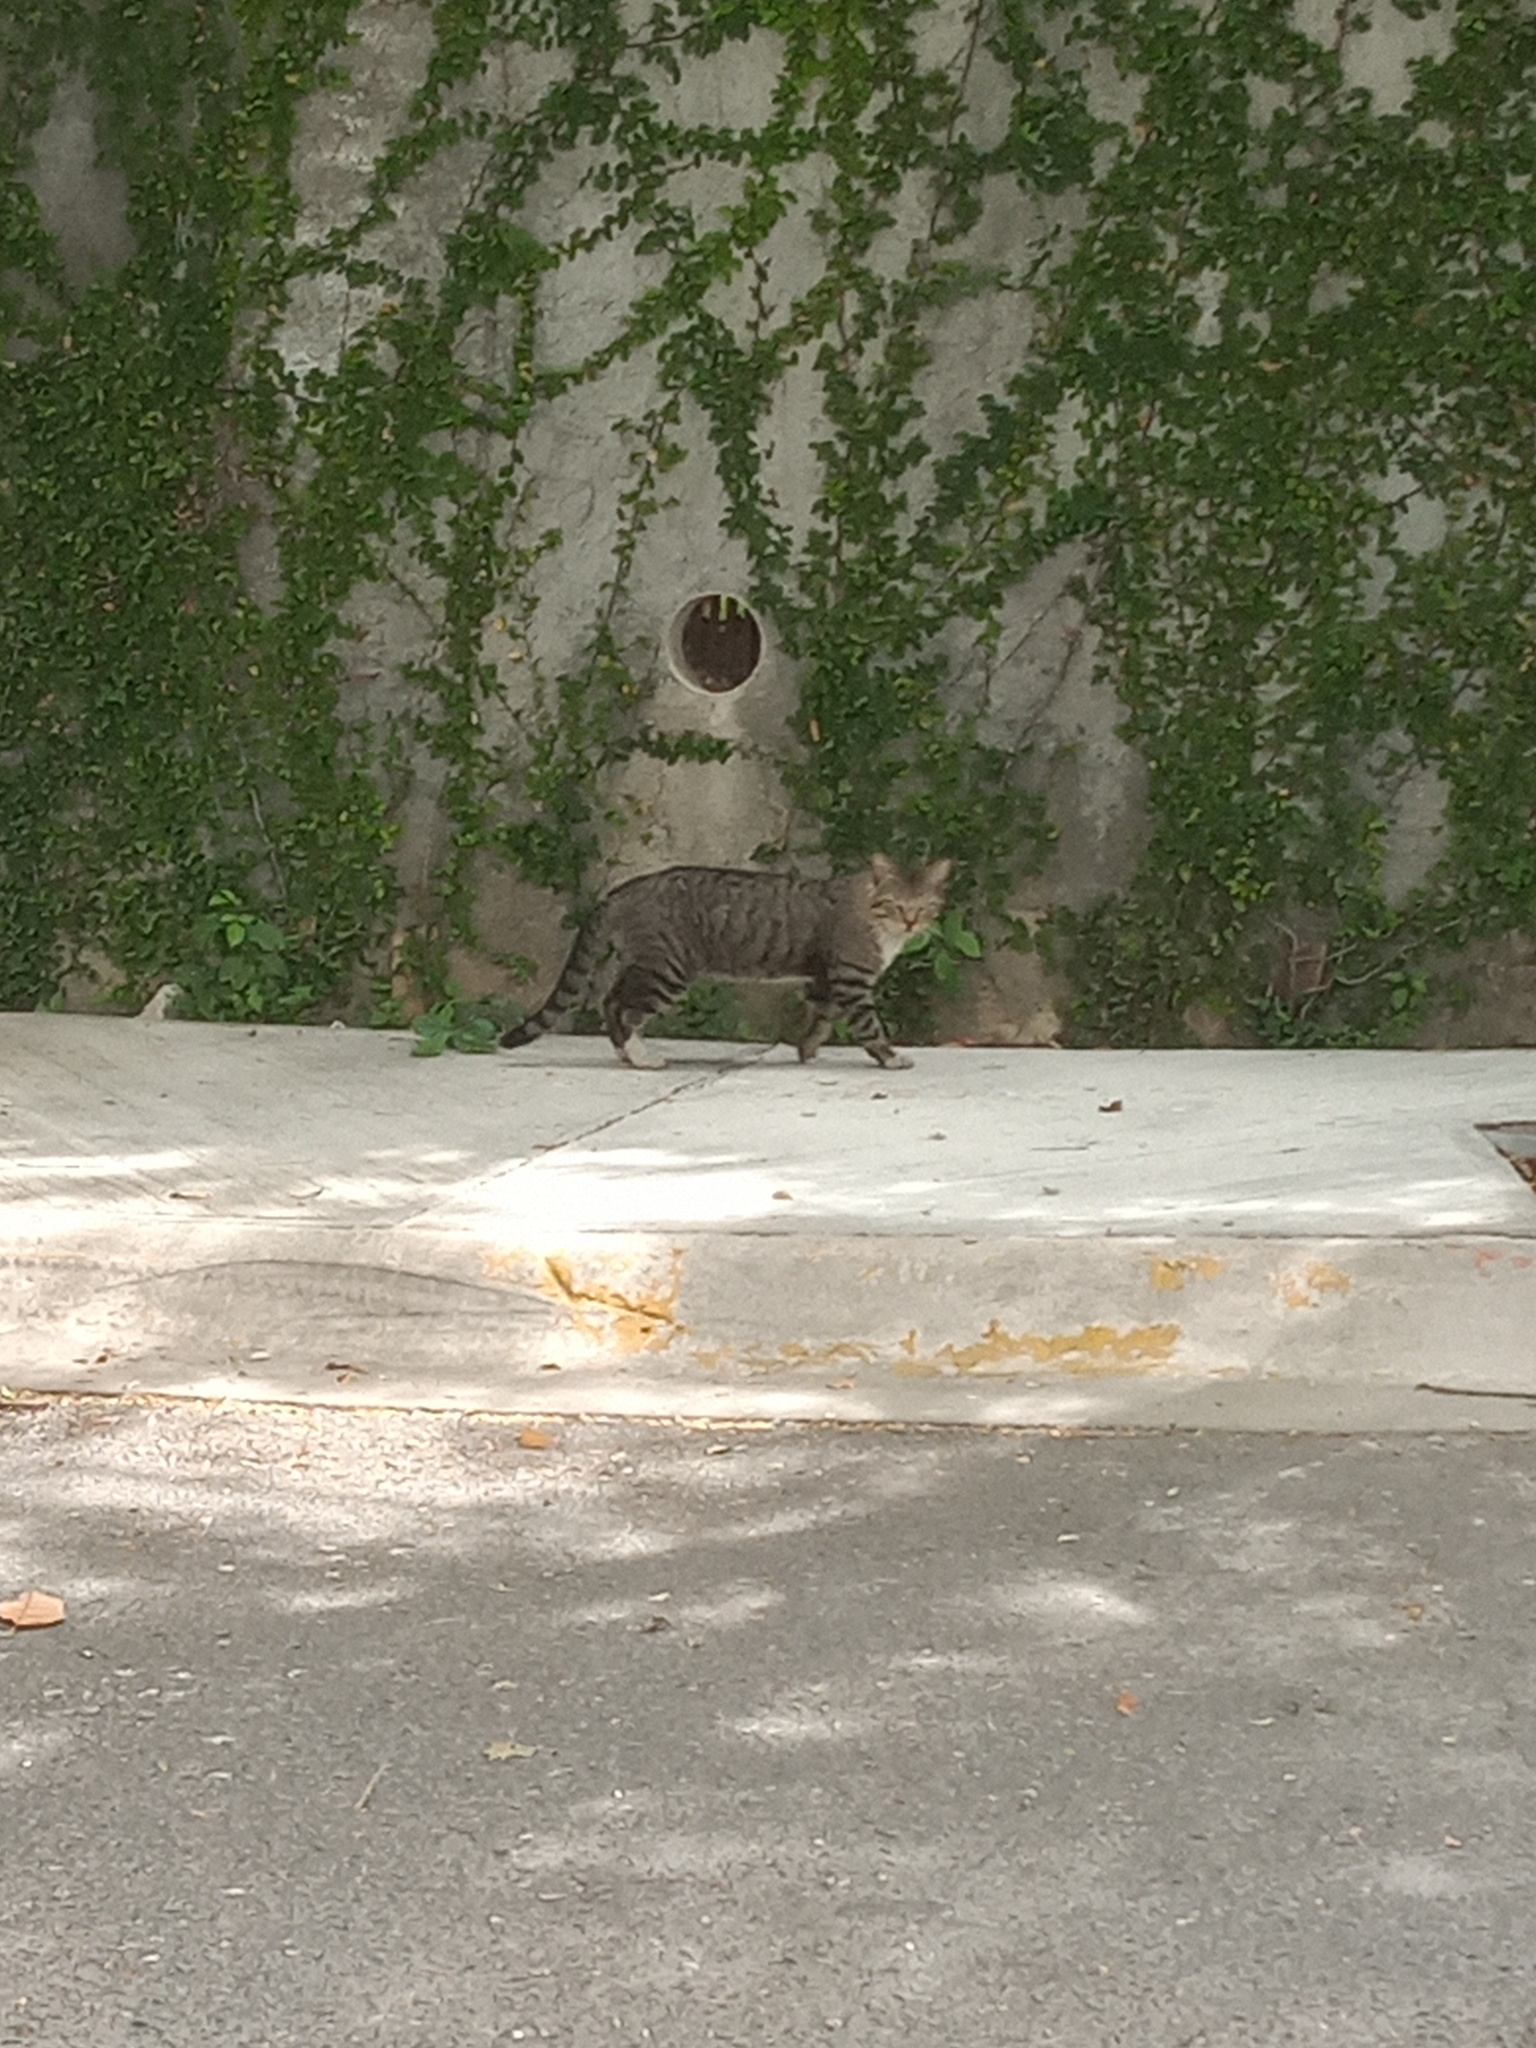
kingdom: Animalia
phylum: Chordata
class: Mammalia
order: Carnivora
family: Felidae
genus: Felis
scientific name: Felis catus
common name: Domestic cat
